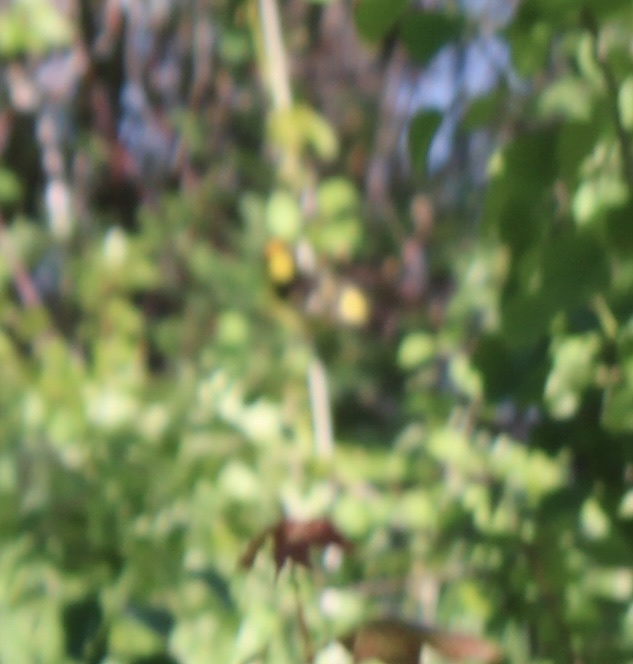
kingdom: Animalia
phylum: Chordata
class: Aves
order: Passeriformes
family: Cardinalidae
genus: Piranga
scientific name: Piranga ludoviciana
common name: Western tanager
